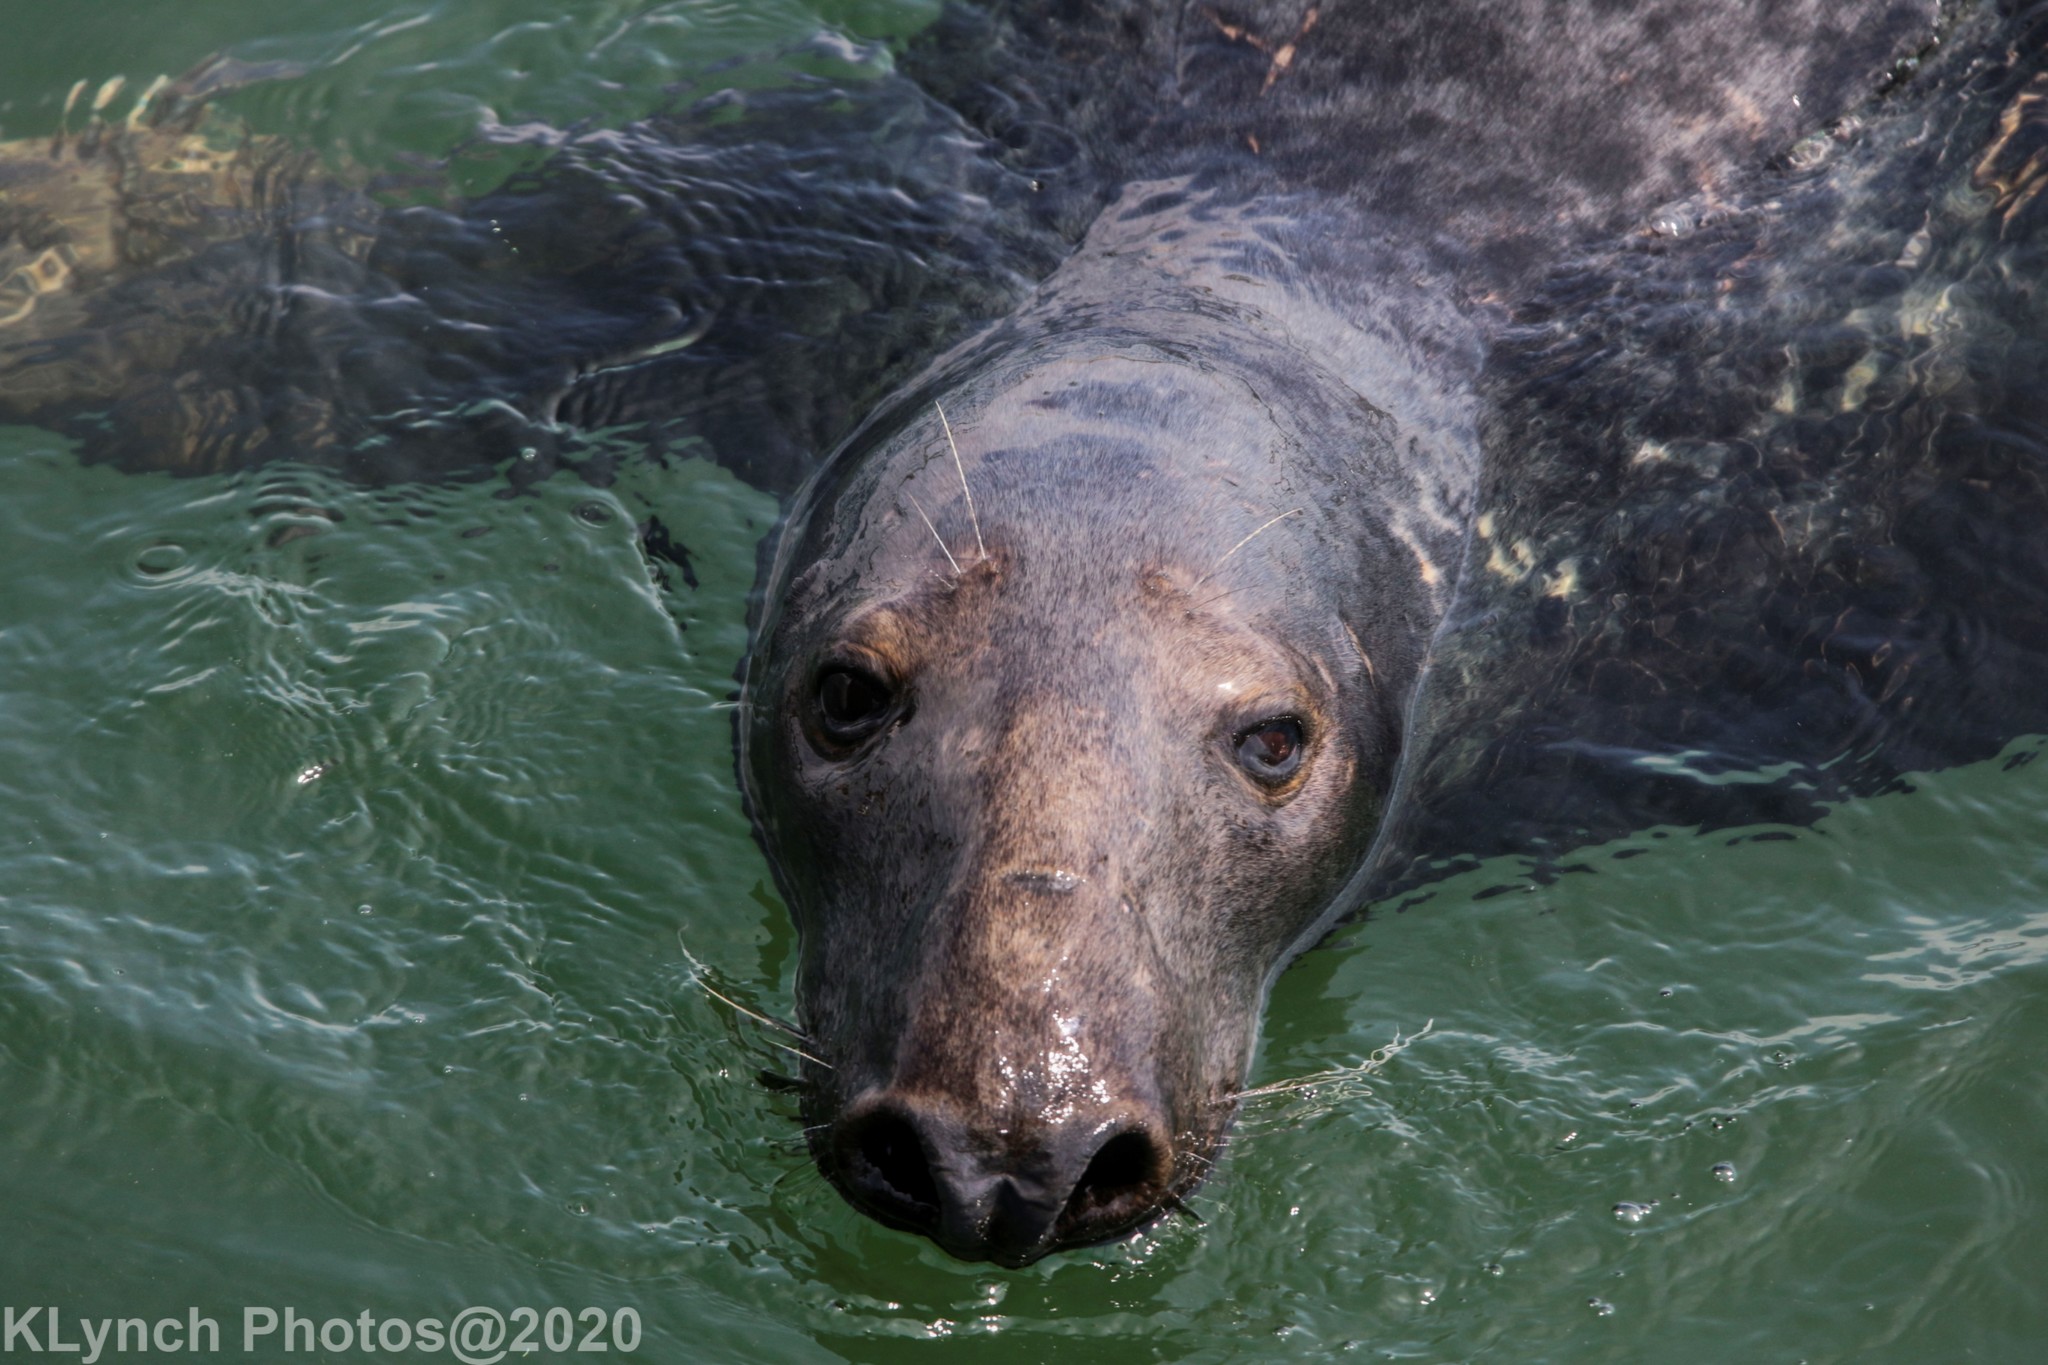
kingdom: Animalia
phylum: Chordata
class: Mammalia
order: Carnivora
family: Phocidae
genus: Halichoerus
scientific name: Halichoerus grypus
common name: Grey seal
